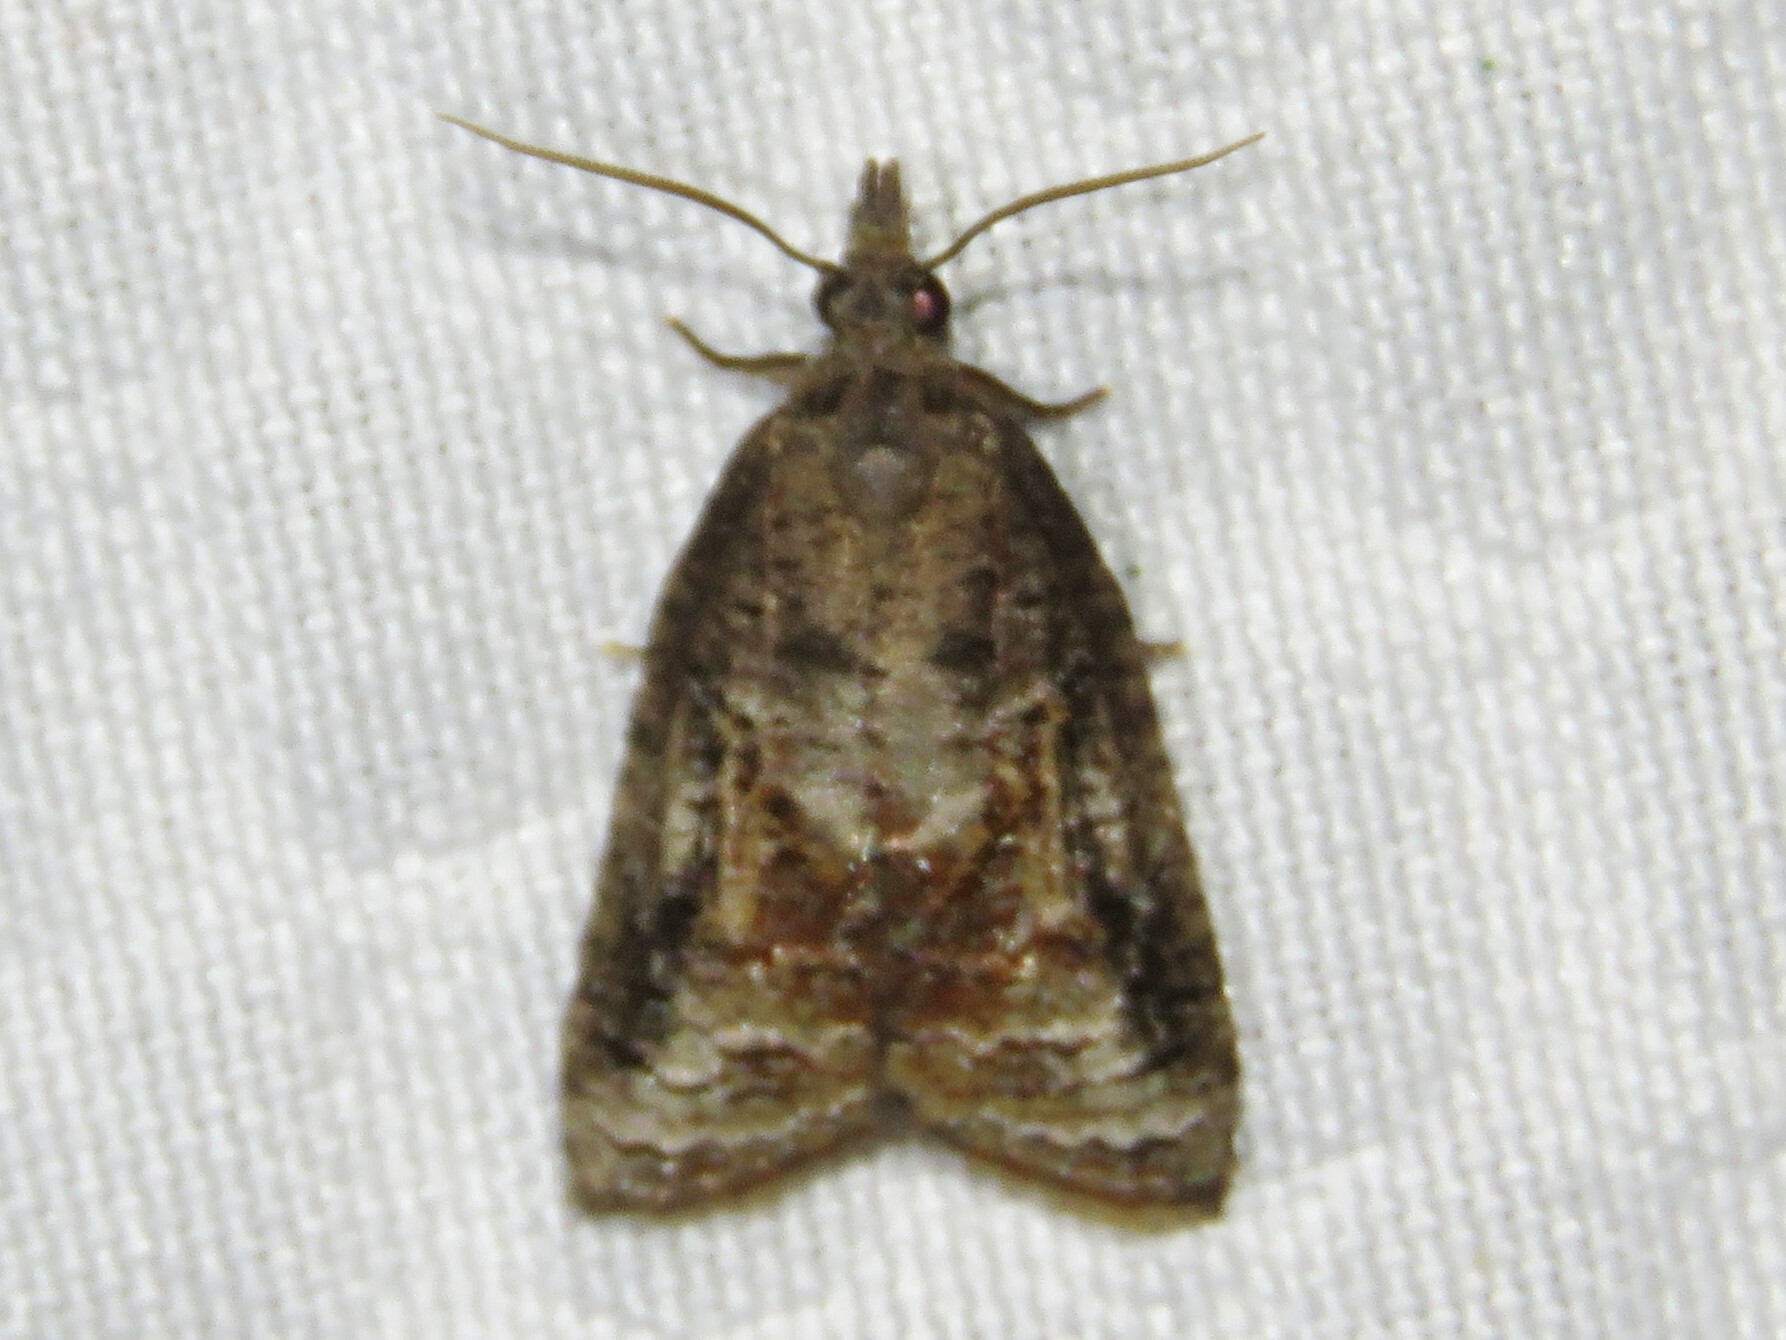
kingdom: Animalia
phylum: Arthropoda
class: Insecta
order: Lepidoptera
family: Tortricidae
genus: Platynota
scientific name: Platynota idaeusalis
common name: Tufted apple bud moth
